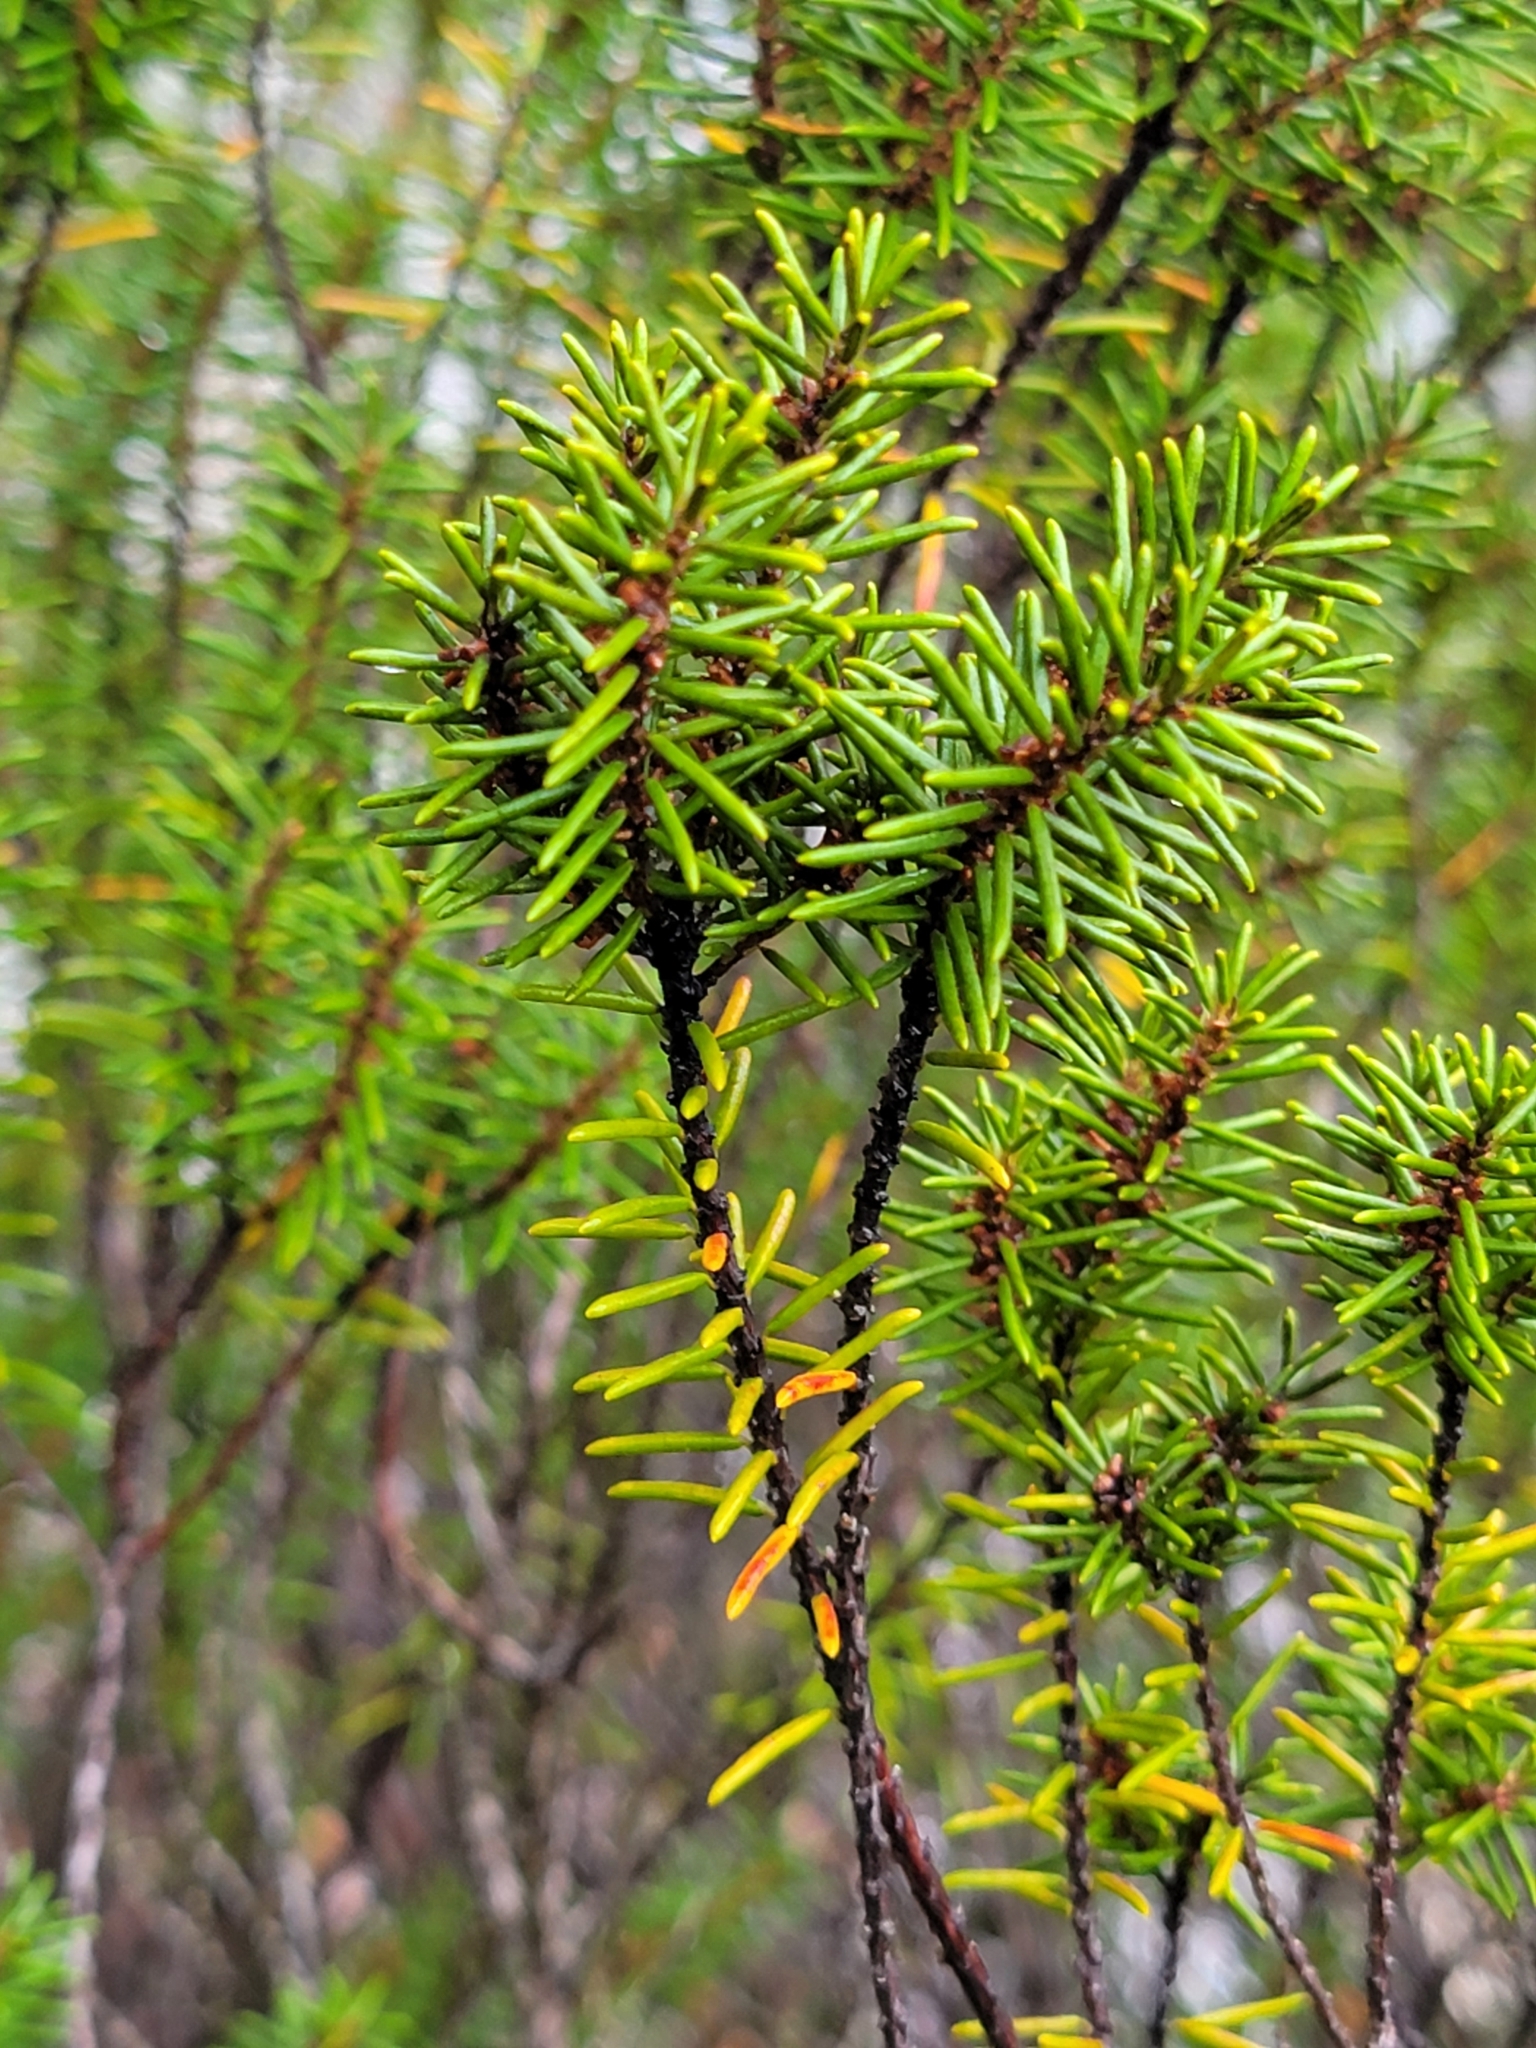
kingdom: Plantae
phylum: Tracheophyta
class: Magnoliopsida
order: Ericales
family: Ericaceae
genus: Ceratiola
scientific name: Ceratiola ericoides
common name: Sandhill-rosemary
